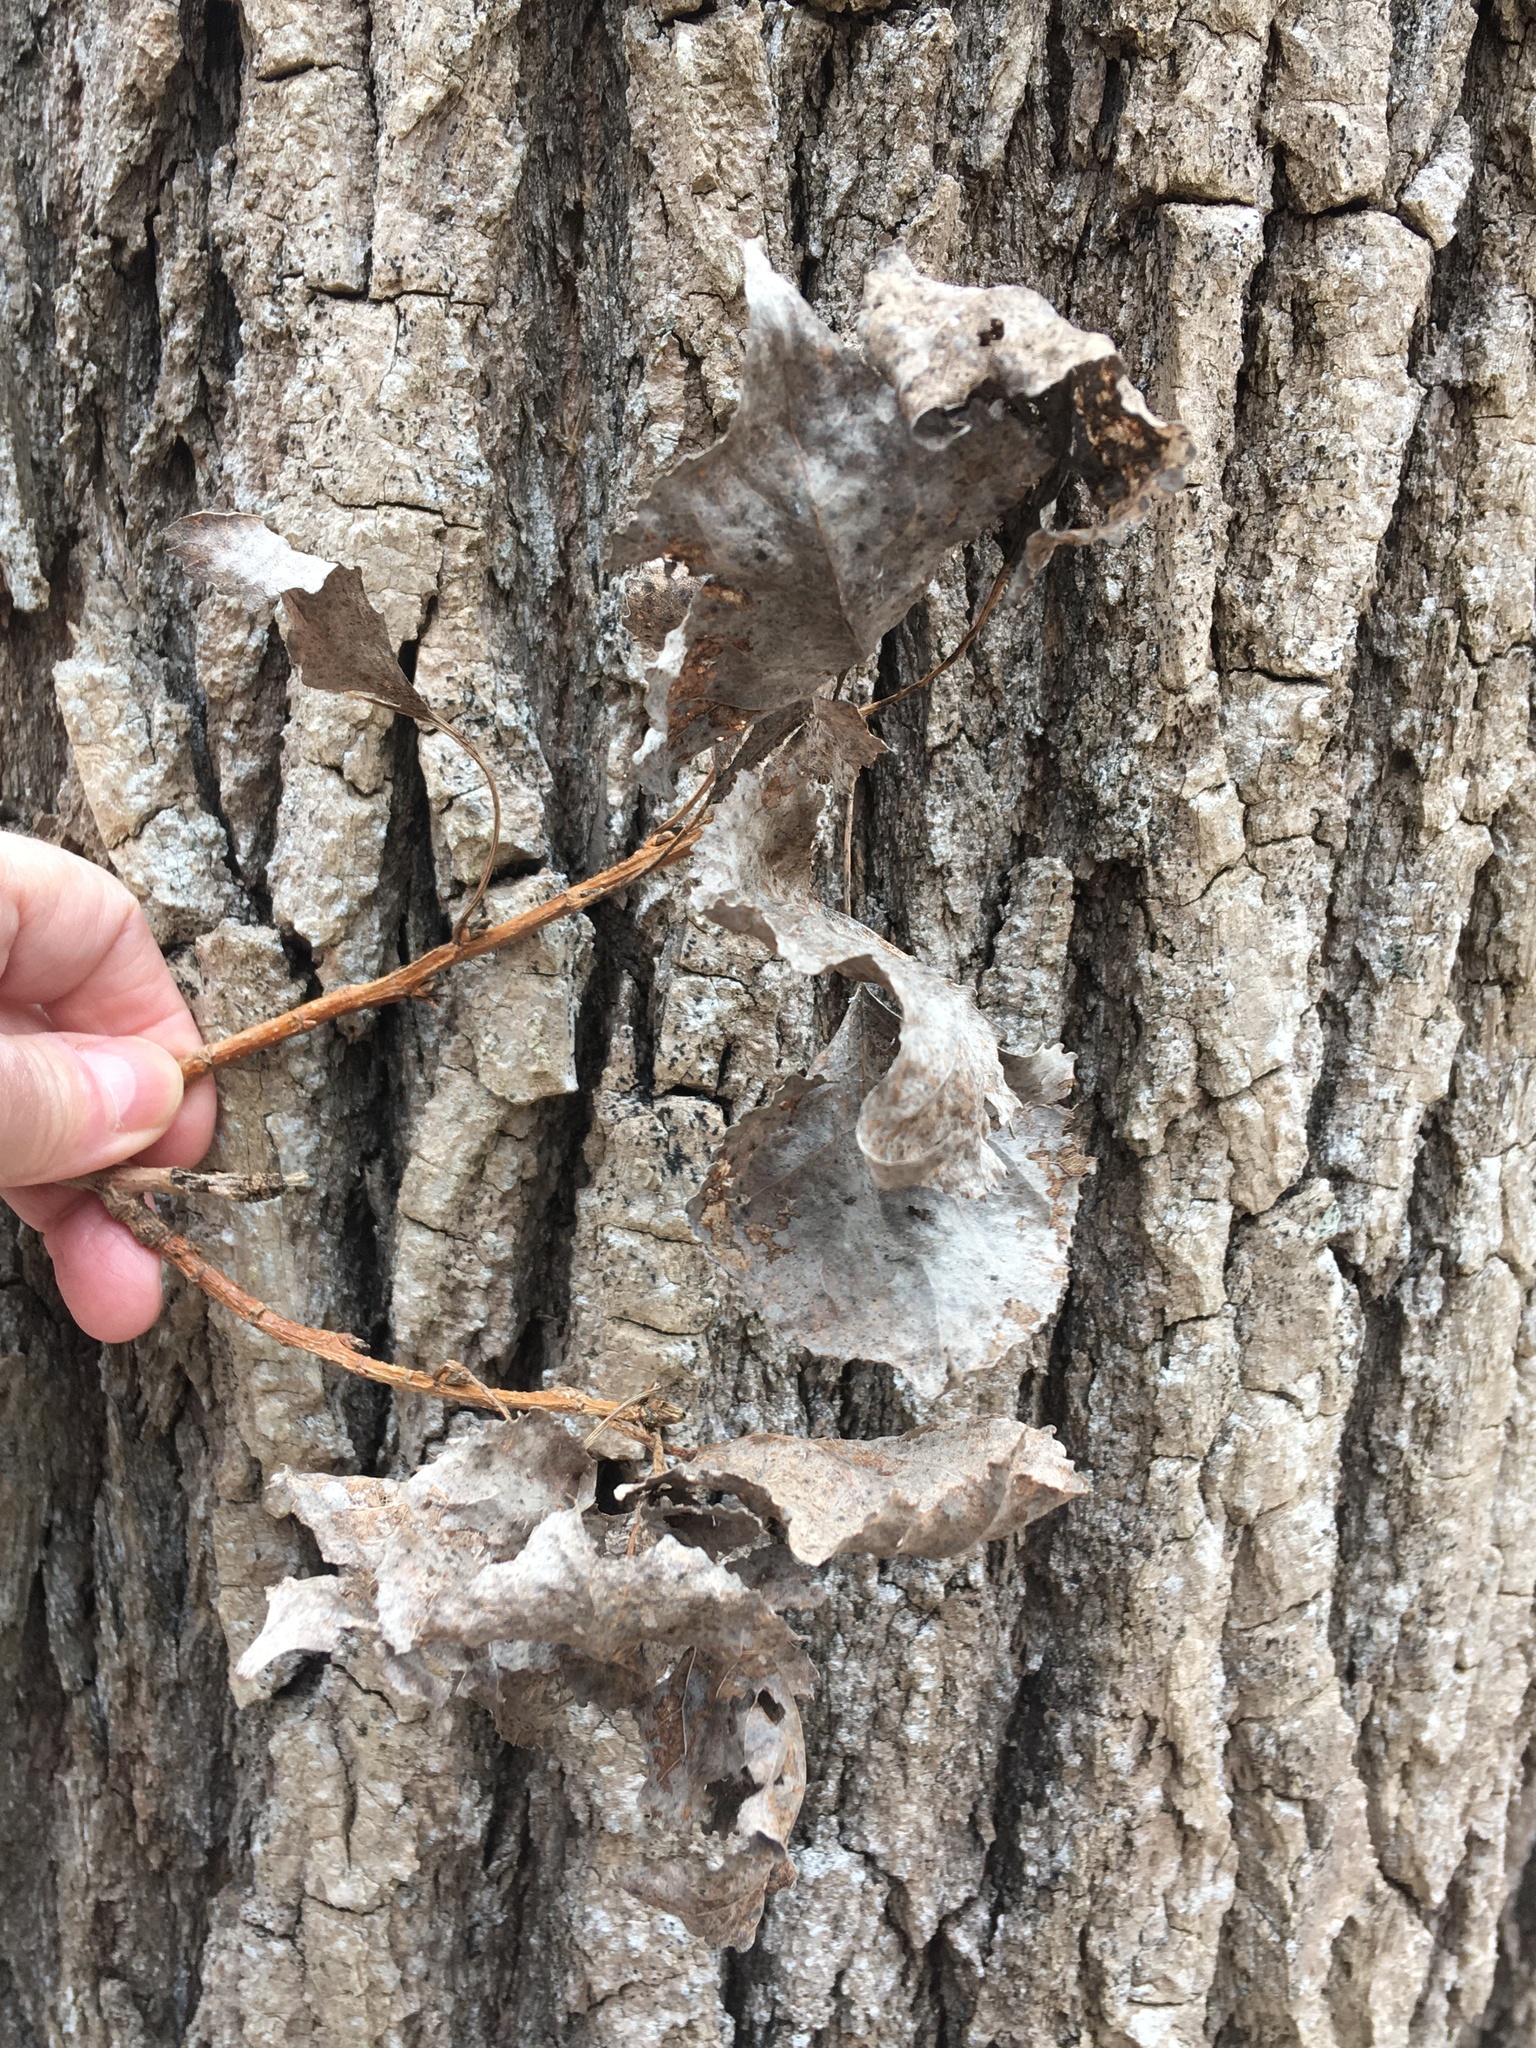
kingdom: Plantae
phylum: Tracheophyta
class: Magnoliopsida
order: Malpighiales
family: Salicaceae
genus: Populus
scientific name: Populus deltoides
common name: Eastern cottonwood
